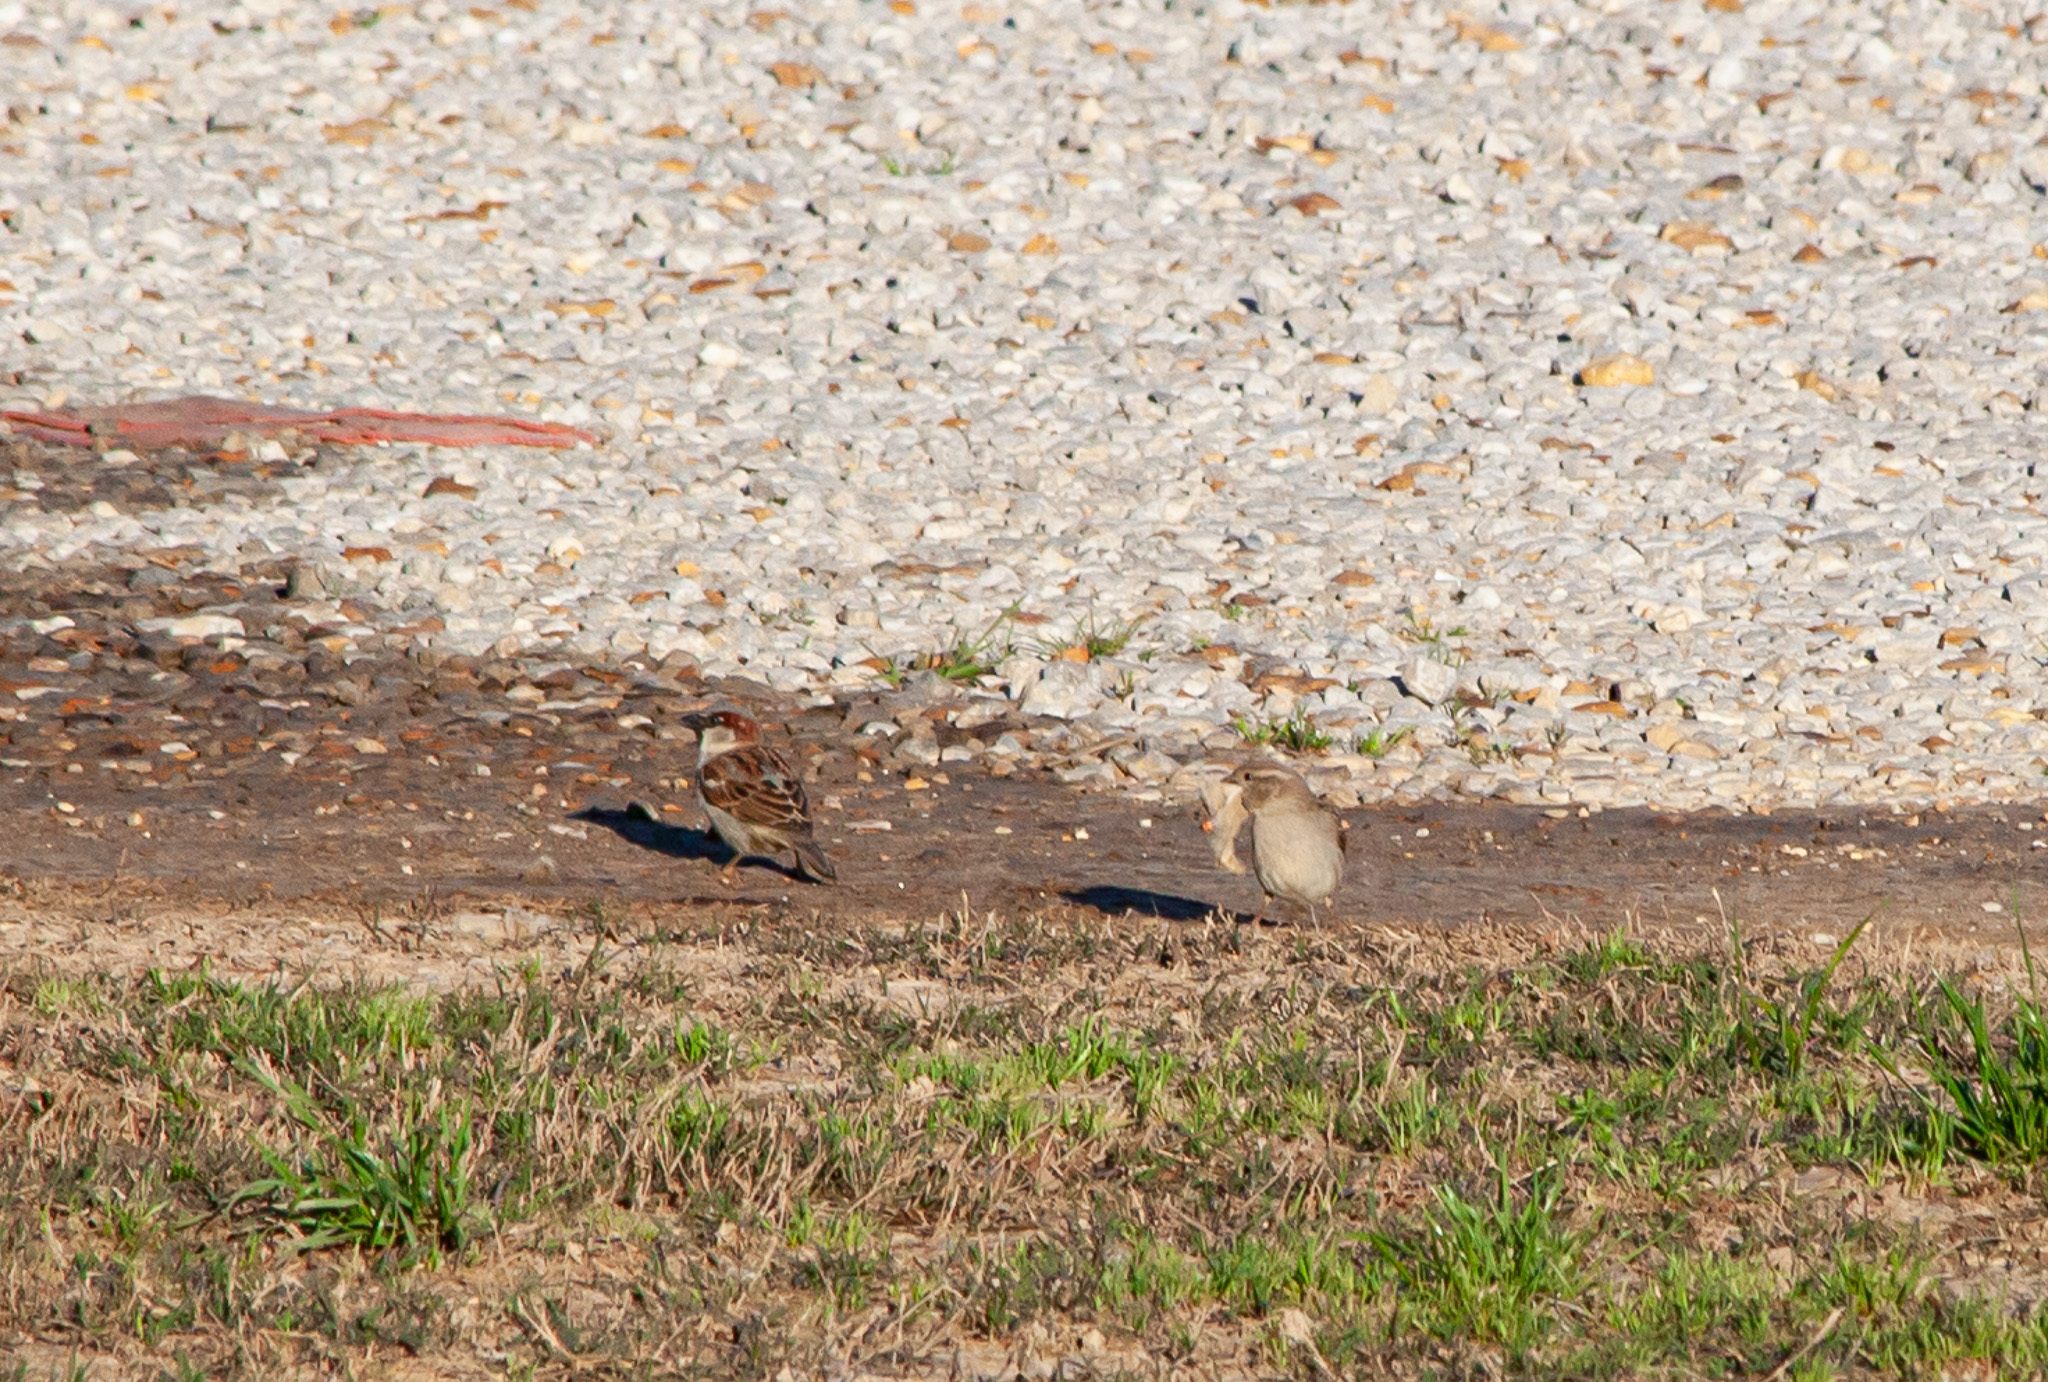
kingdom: Animalia
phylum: Chordata
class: Aves
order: Passeriformes
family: Passeridae
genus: Passer
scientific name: Passer domesticus
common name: House sparrow
